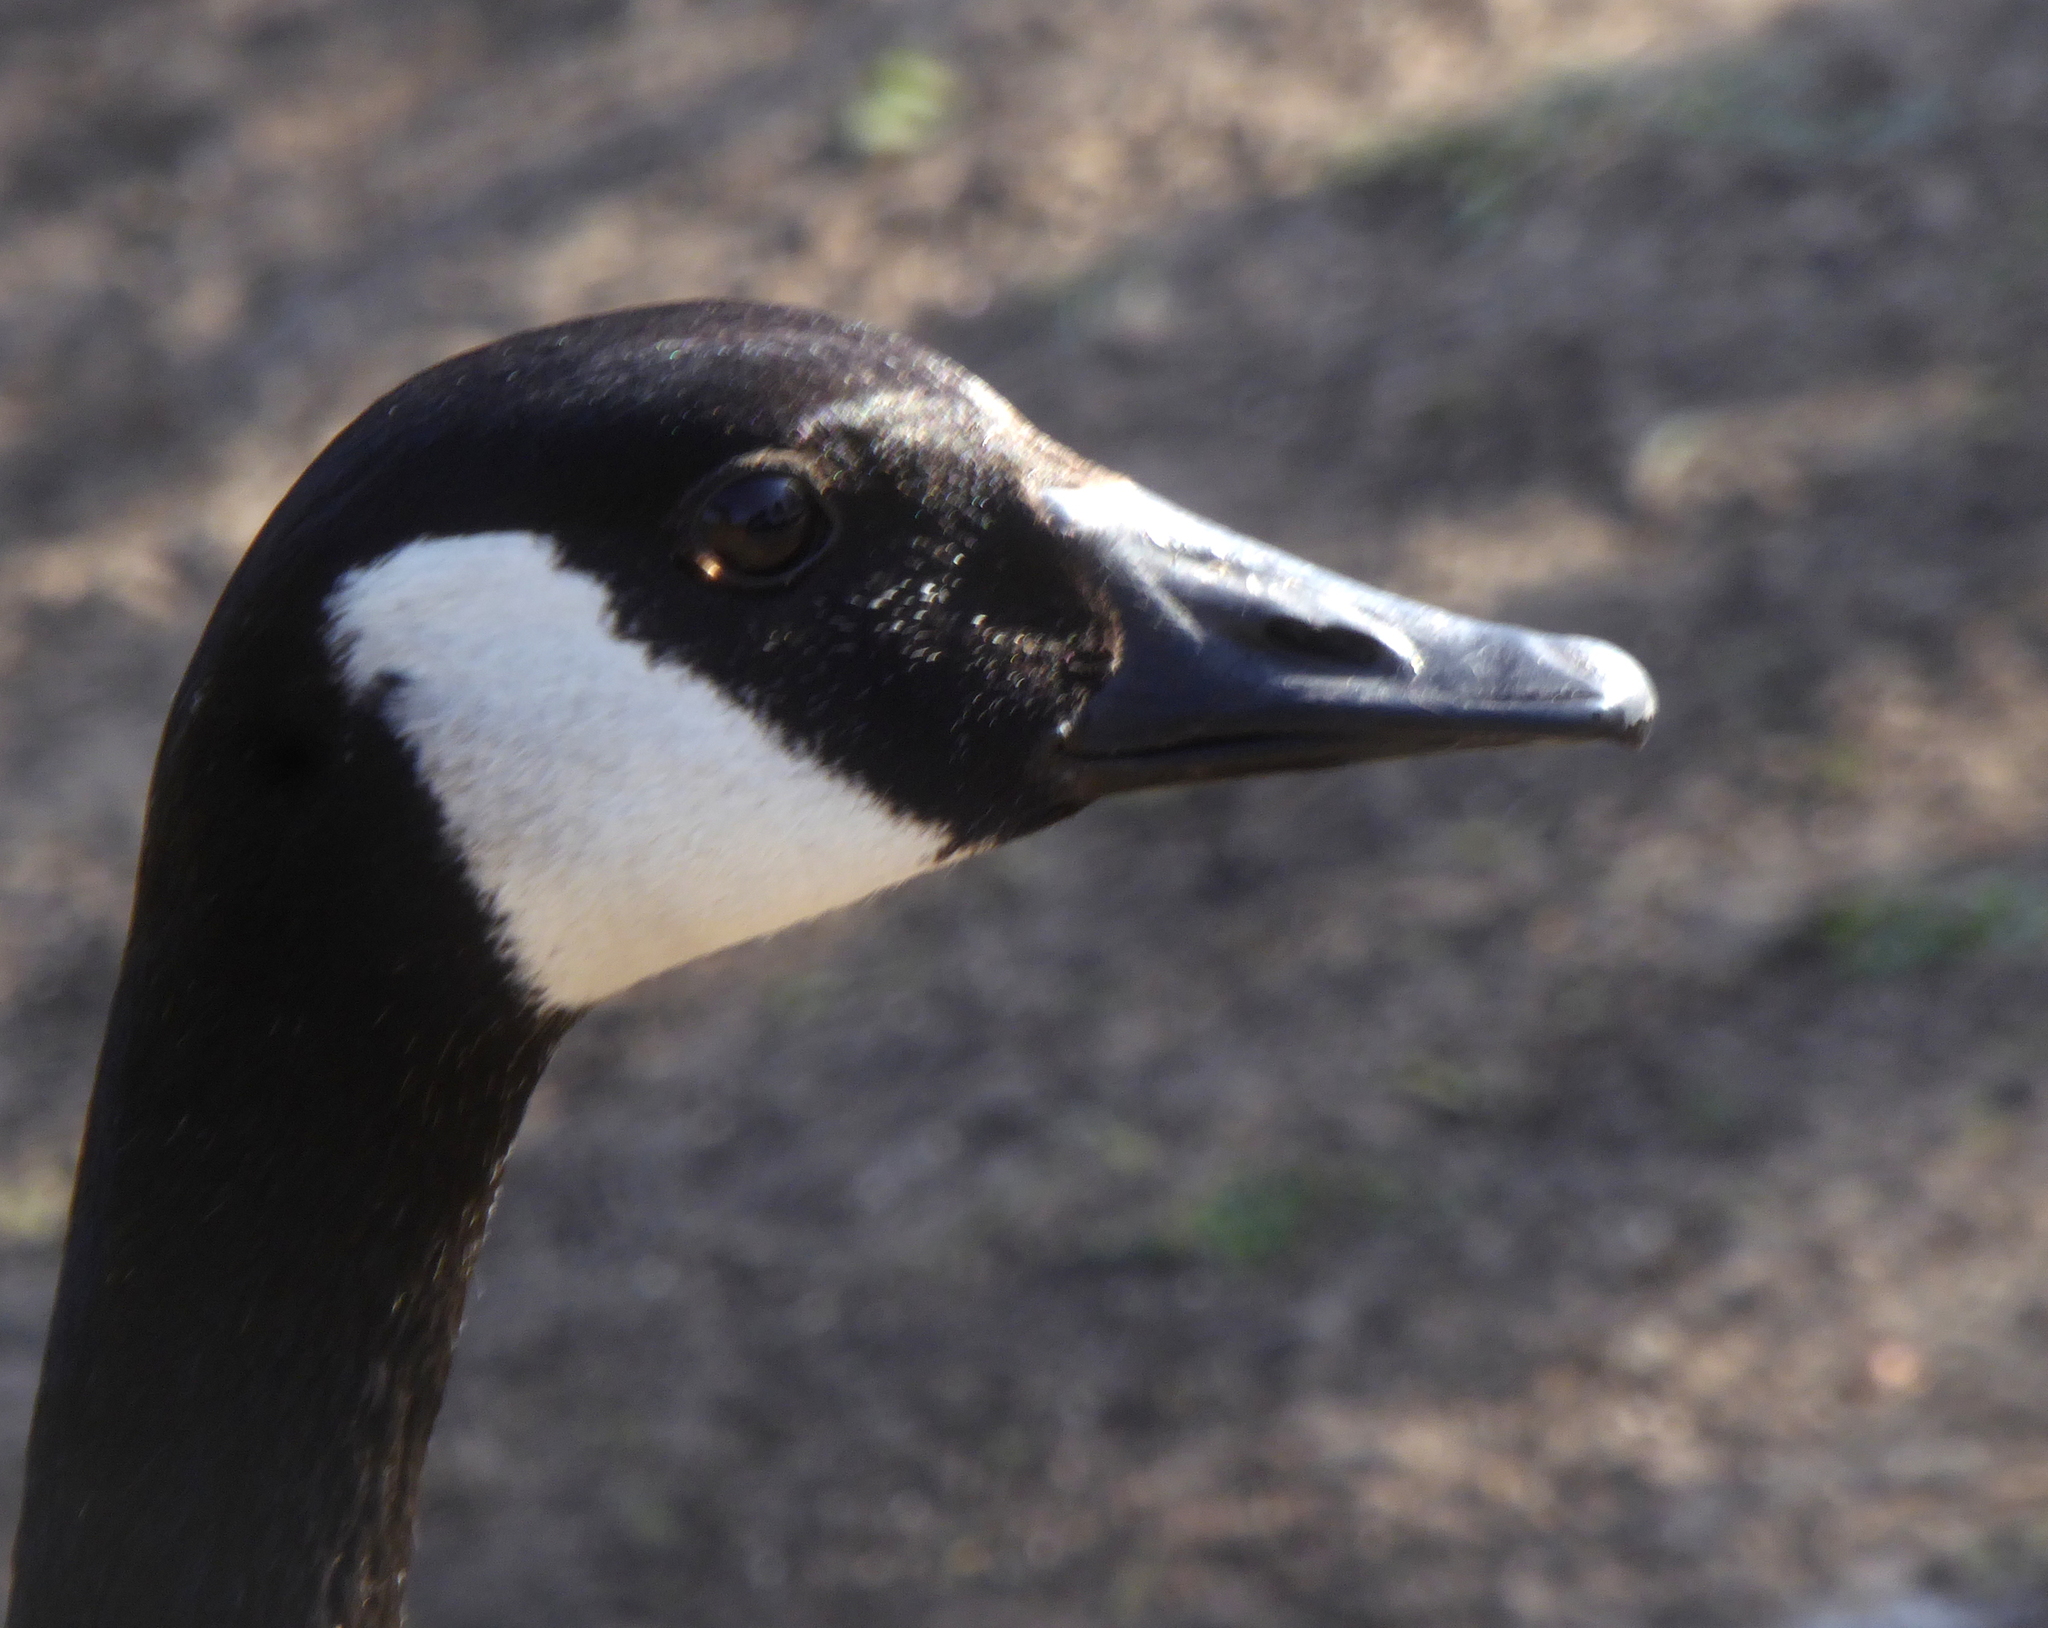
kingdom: Animalia
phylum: Chordata
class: Aves
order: Anseriformes
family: Anatidae
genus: Branta
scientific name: Branta canadensis
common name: Canada goose
